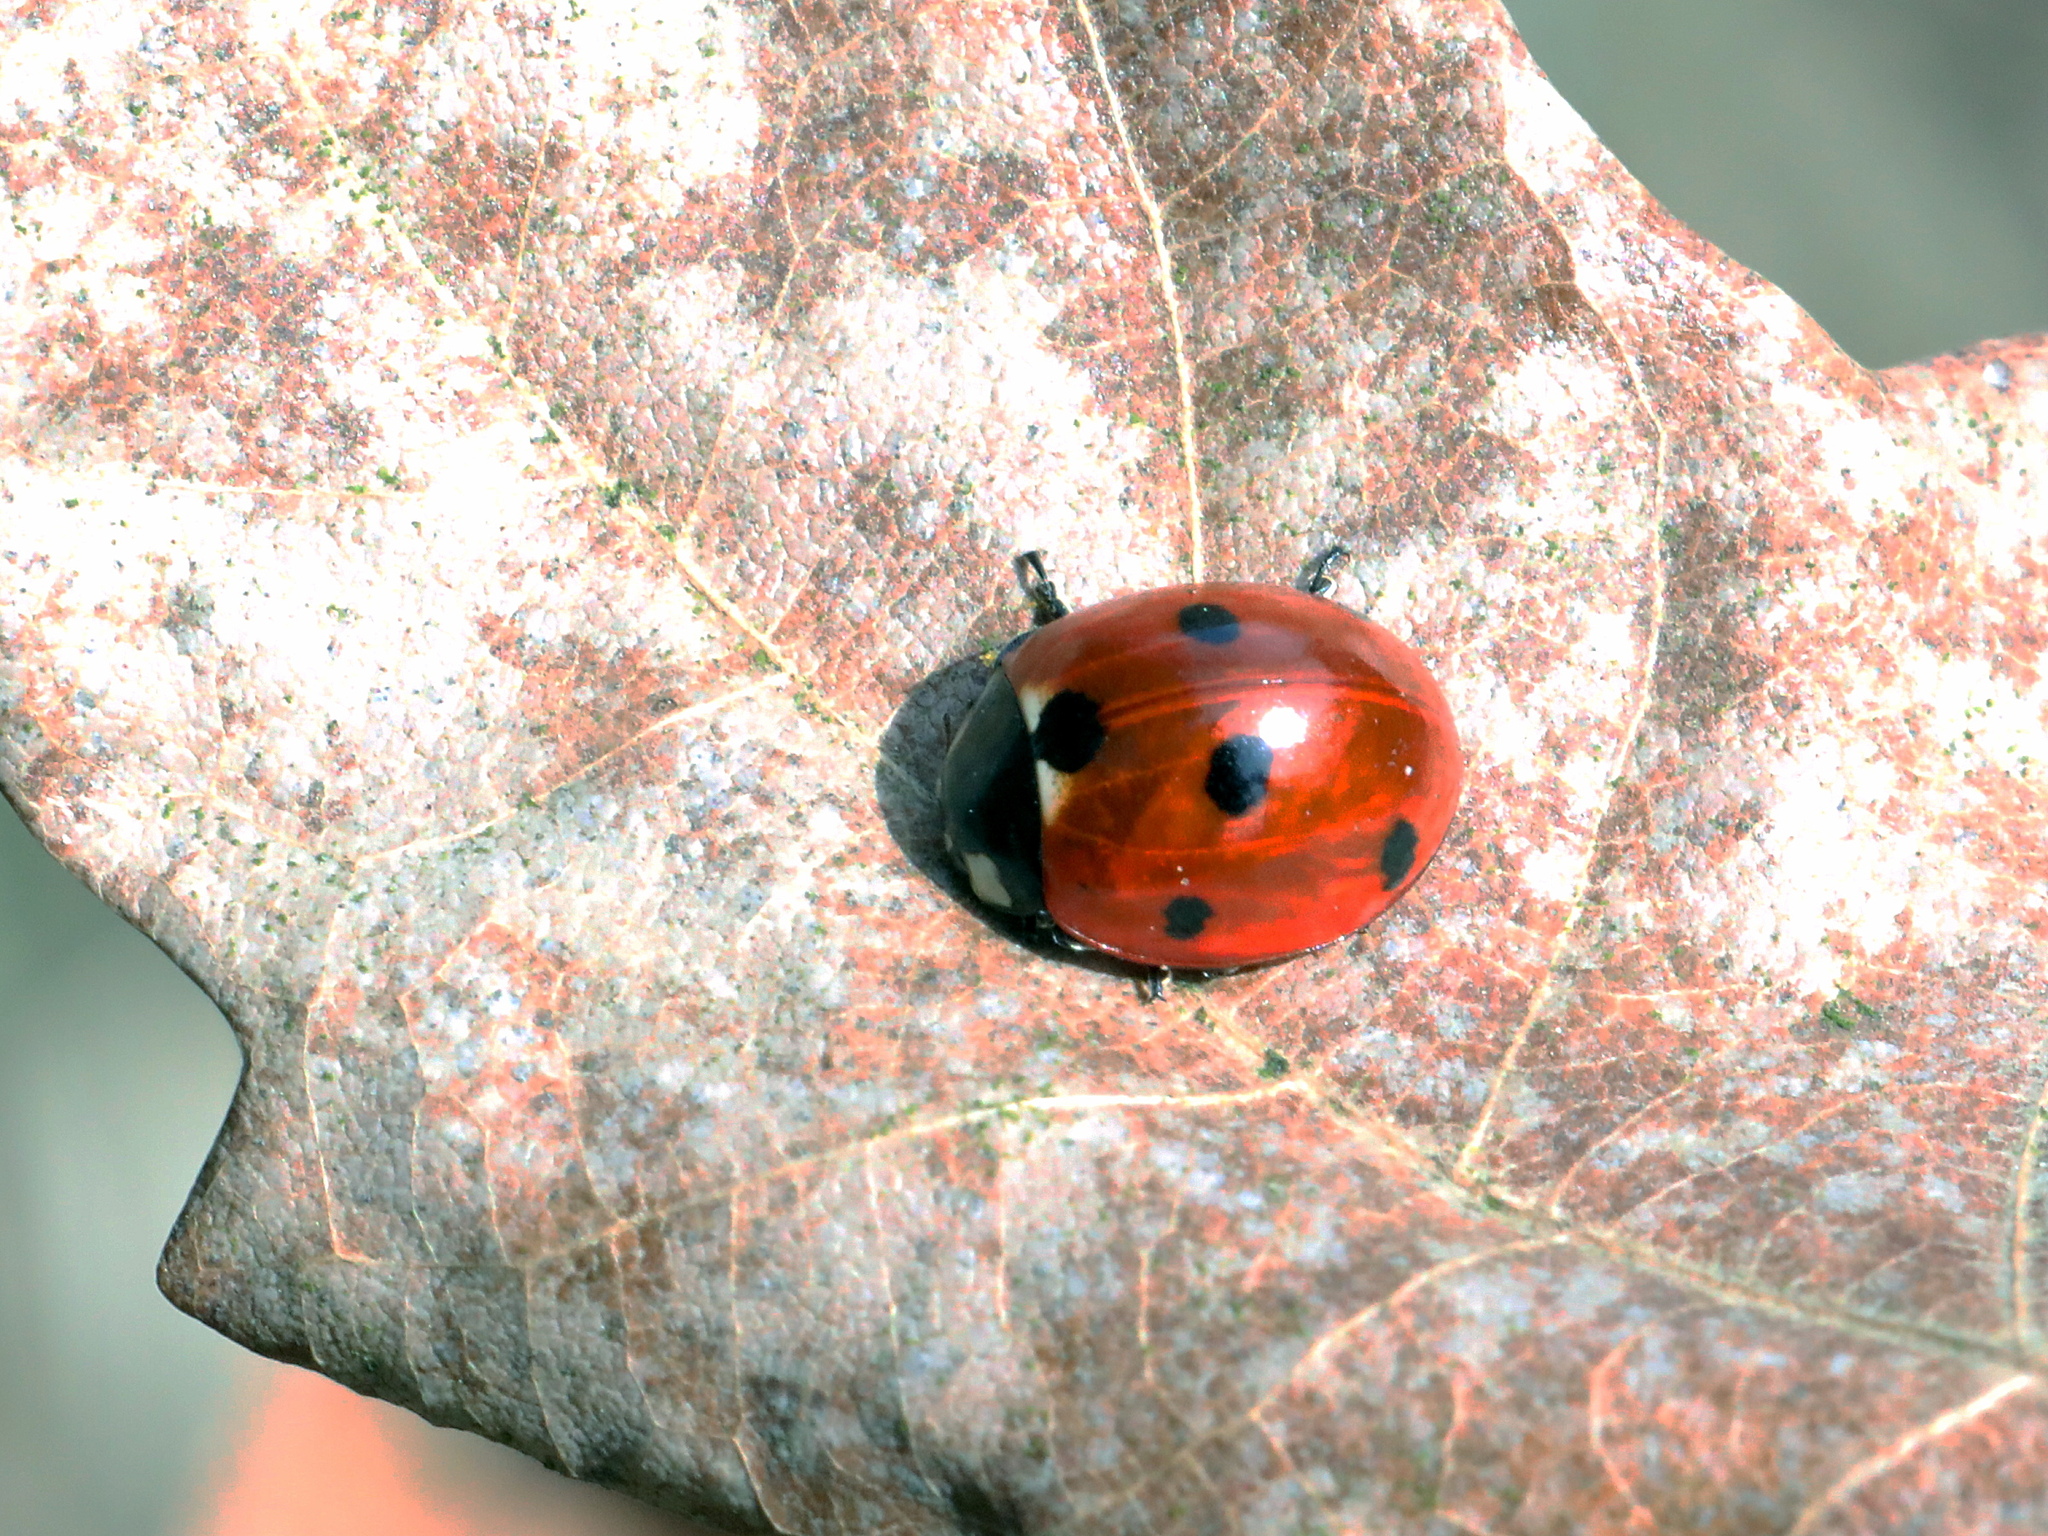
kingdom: Animalia
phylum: Arthropoda
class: Insecta
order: Coleoptera
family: Coccinellidae
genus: Coccinella
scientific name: Coccinella septempunctata
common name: Sevenspotted lady beetle
